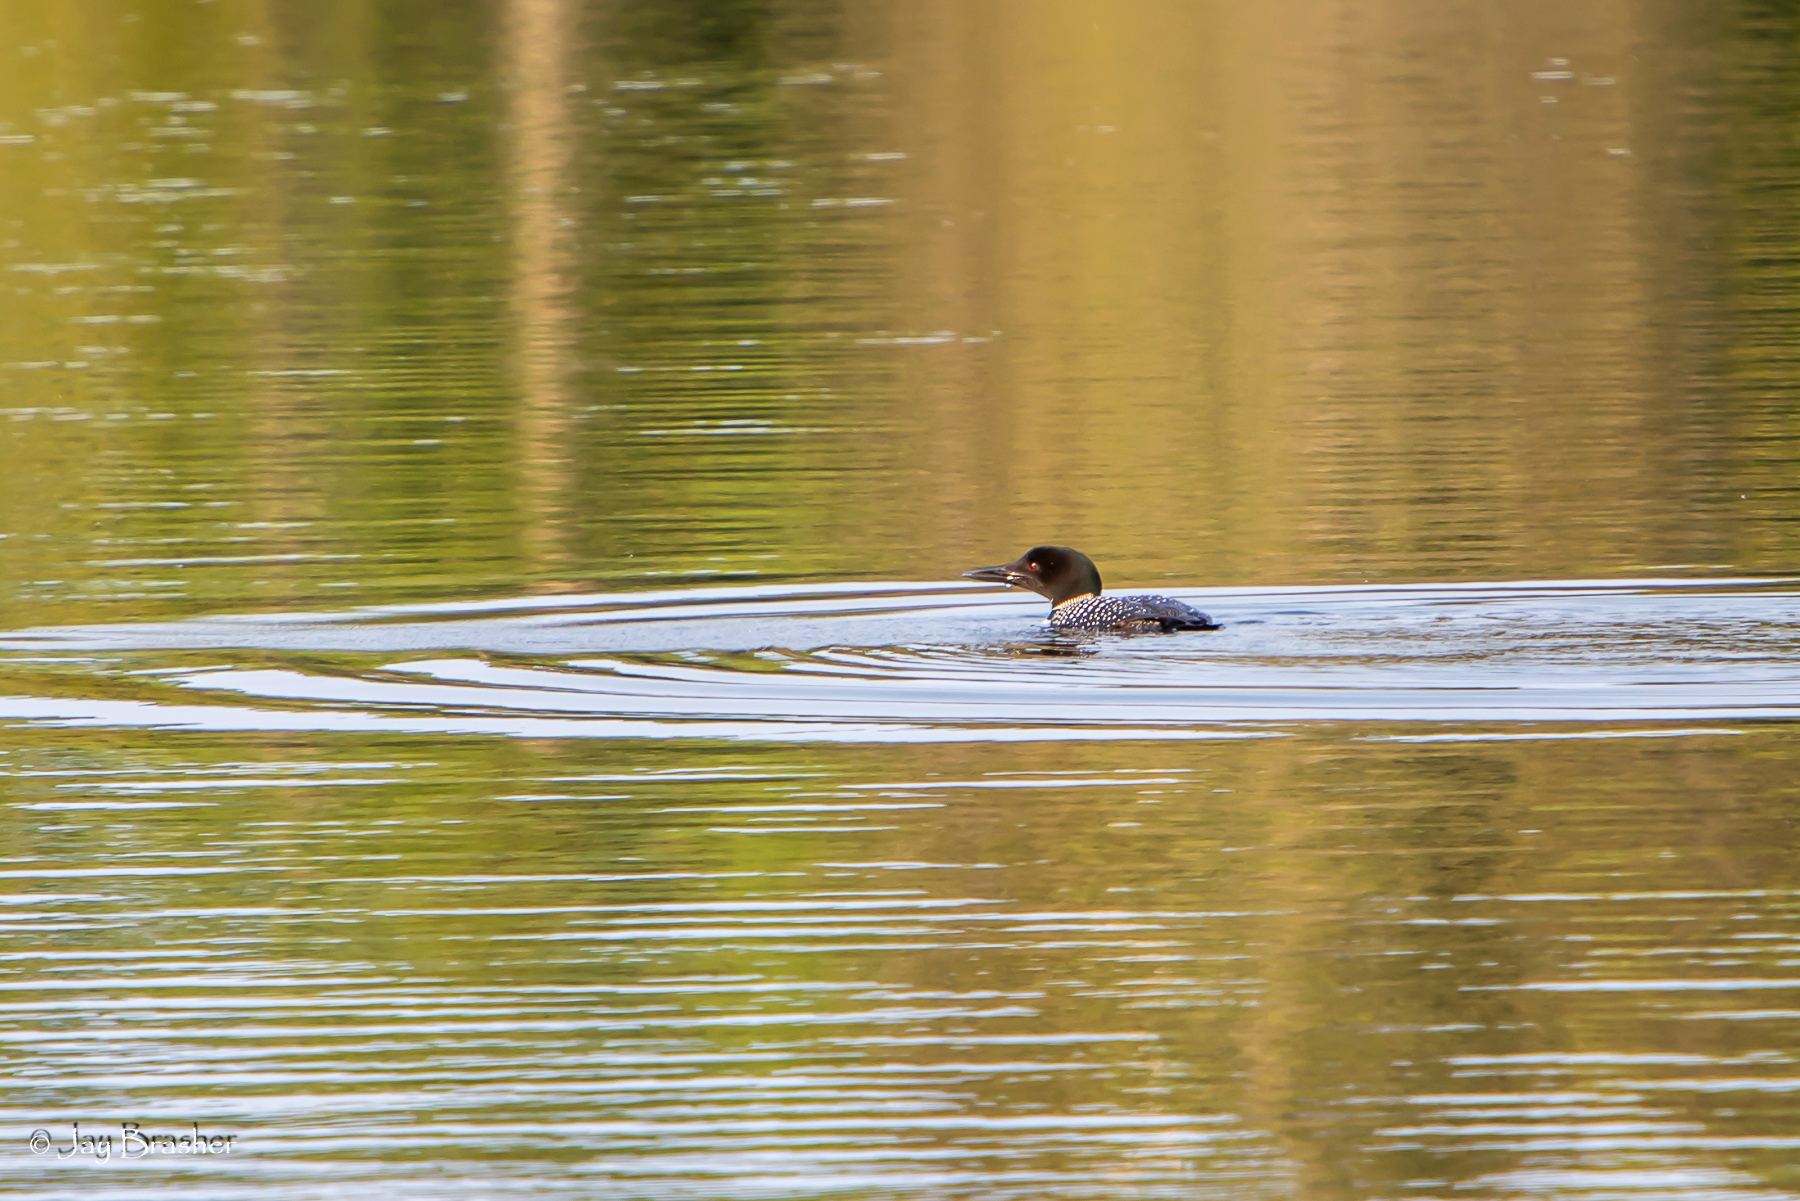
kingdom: Animalia
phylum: Chordata
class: Aves
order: Gaviiformes
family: Gaviidae
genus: Gavia
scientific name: Gavia immer
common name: Common loon
